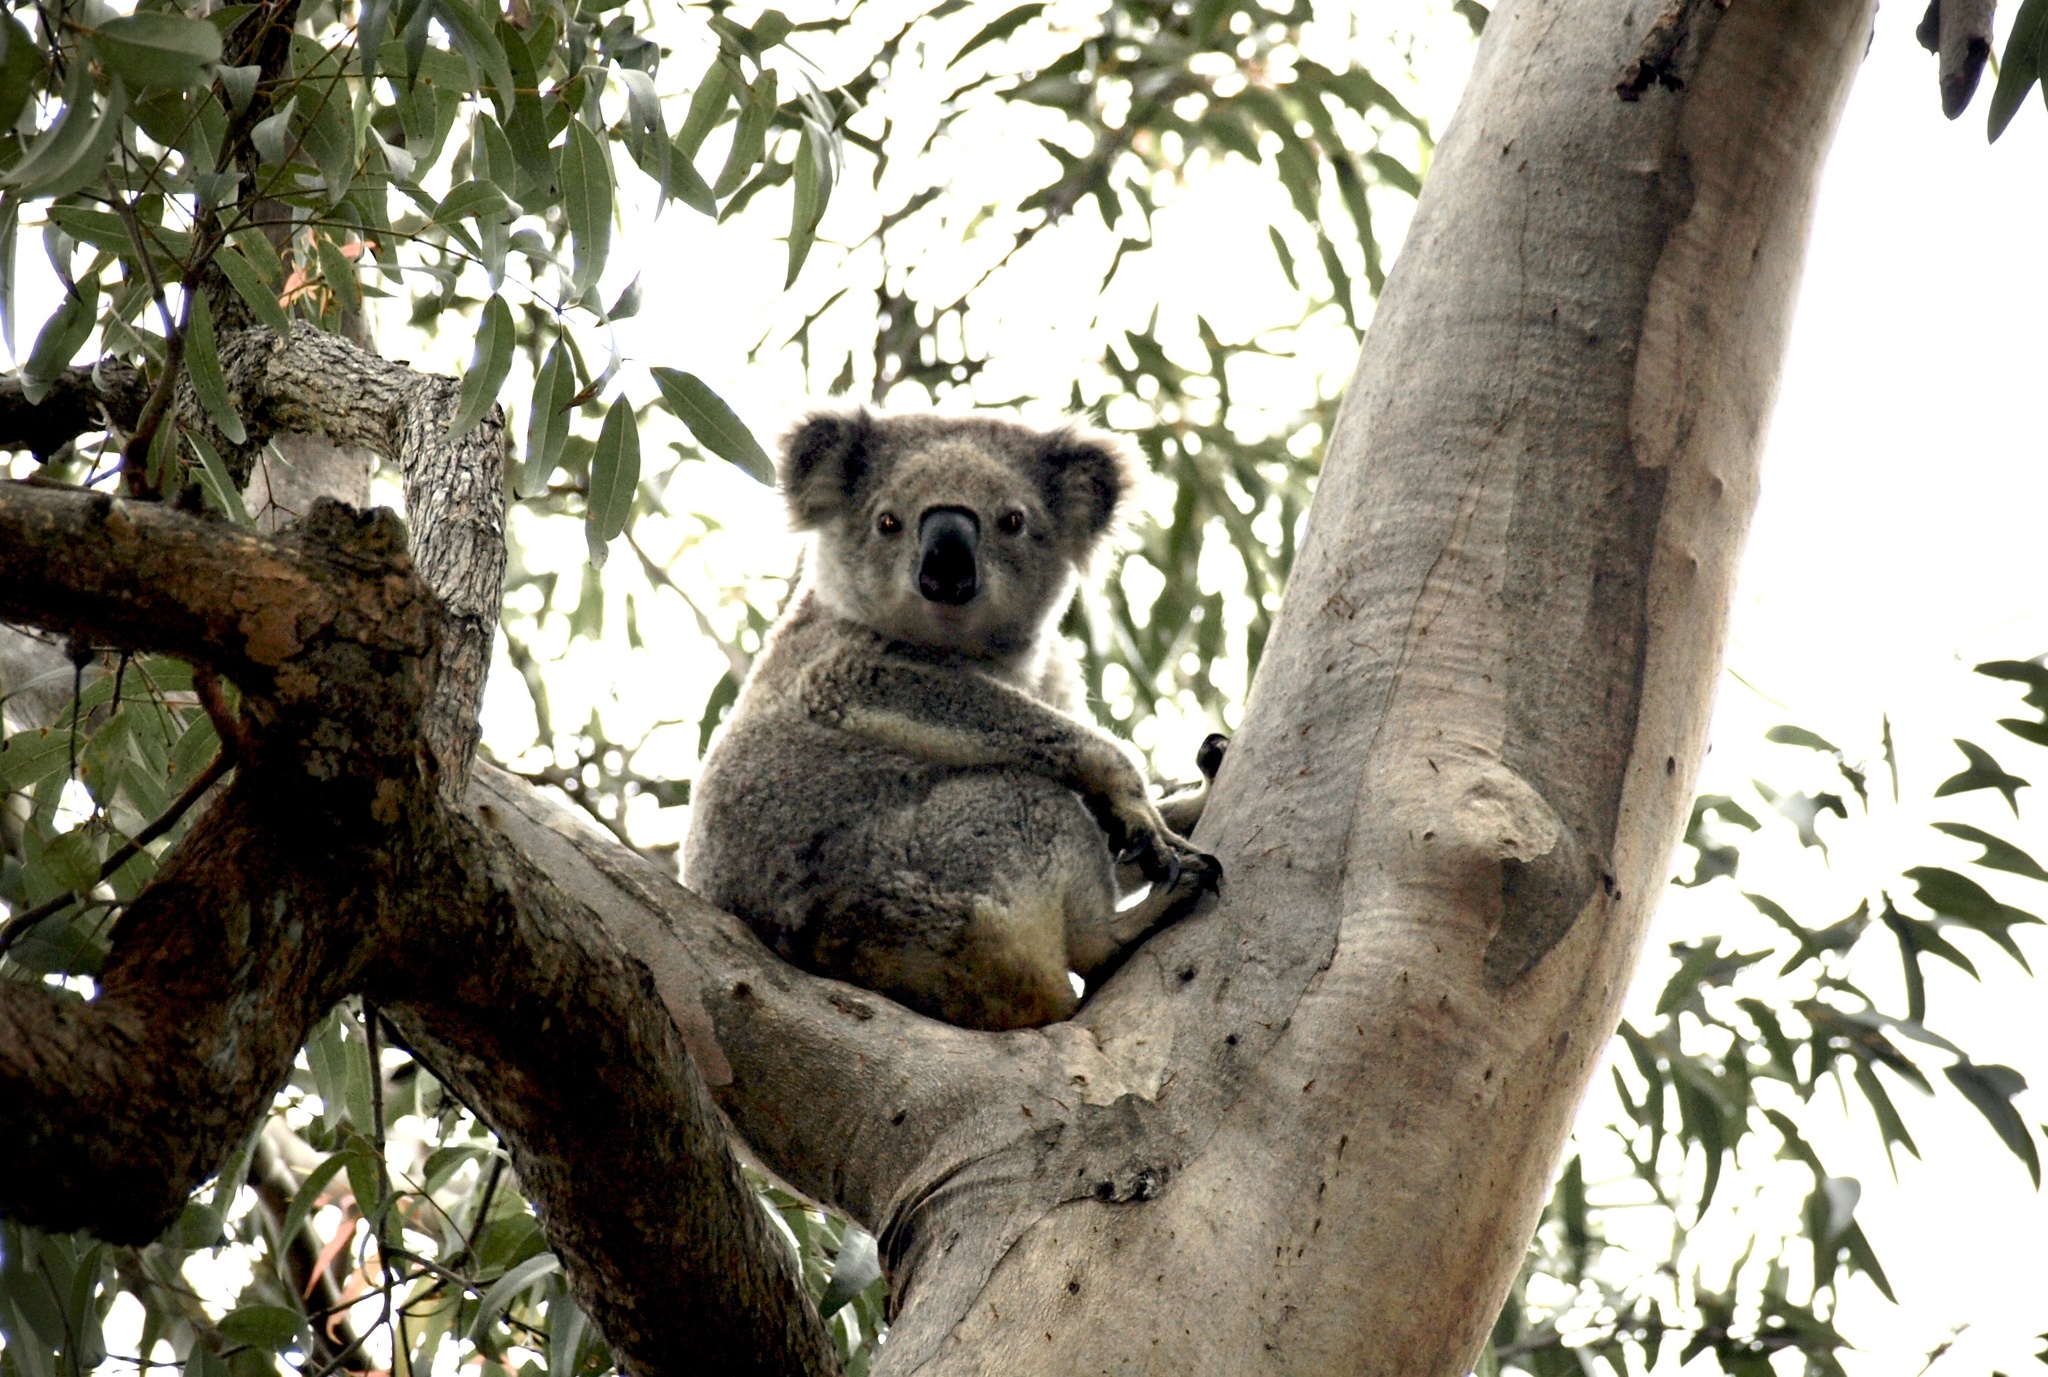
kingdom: Animalia
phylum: Chordata
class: Mammalia
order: Diprotodontia
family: Phascolarctidae
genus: Phascolarctos
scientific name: Phascolarctos cinereus
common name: Koala
